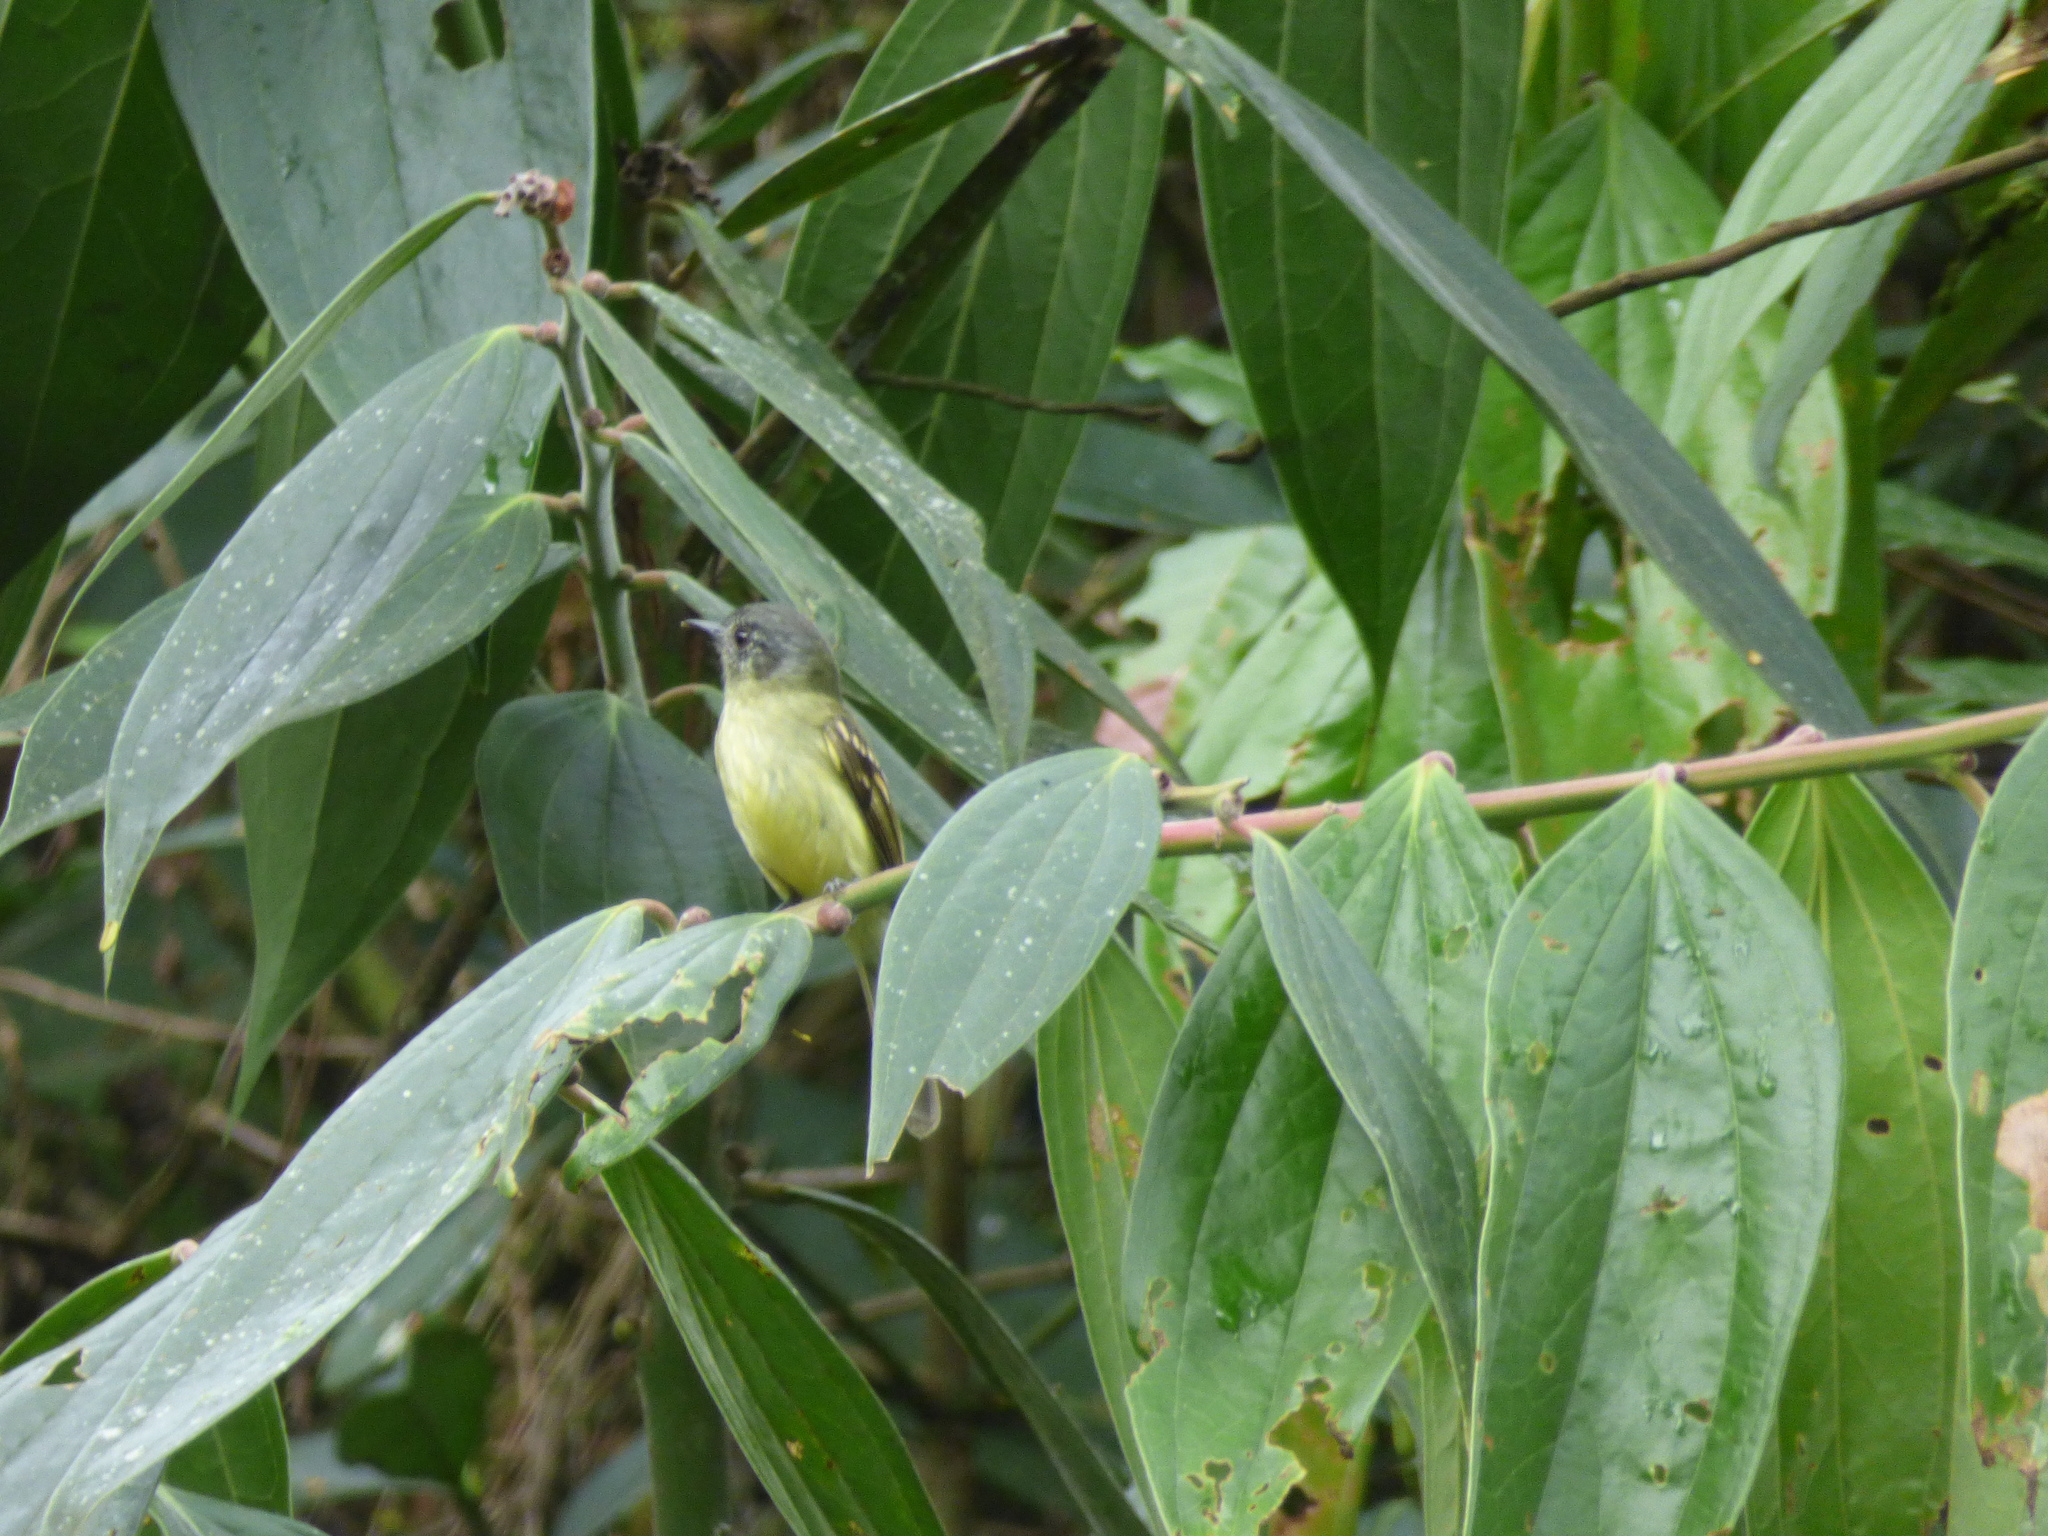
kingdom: Animalia
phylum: Chordata
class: Aves
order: Passeriformes
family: Tyrannidae
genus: Leptopogon
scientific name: Leptopogon superciliaris
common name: Slaty-capped flycatcher
